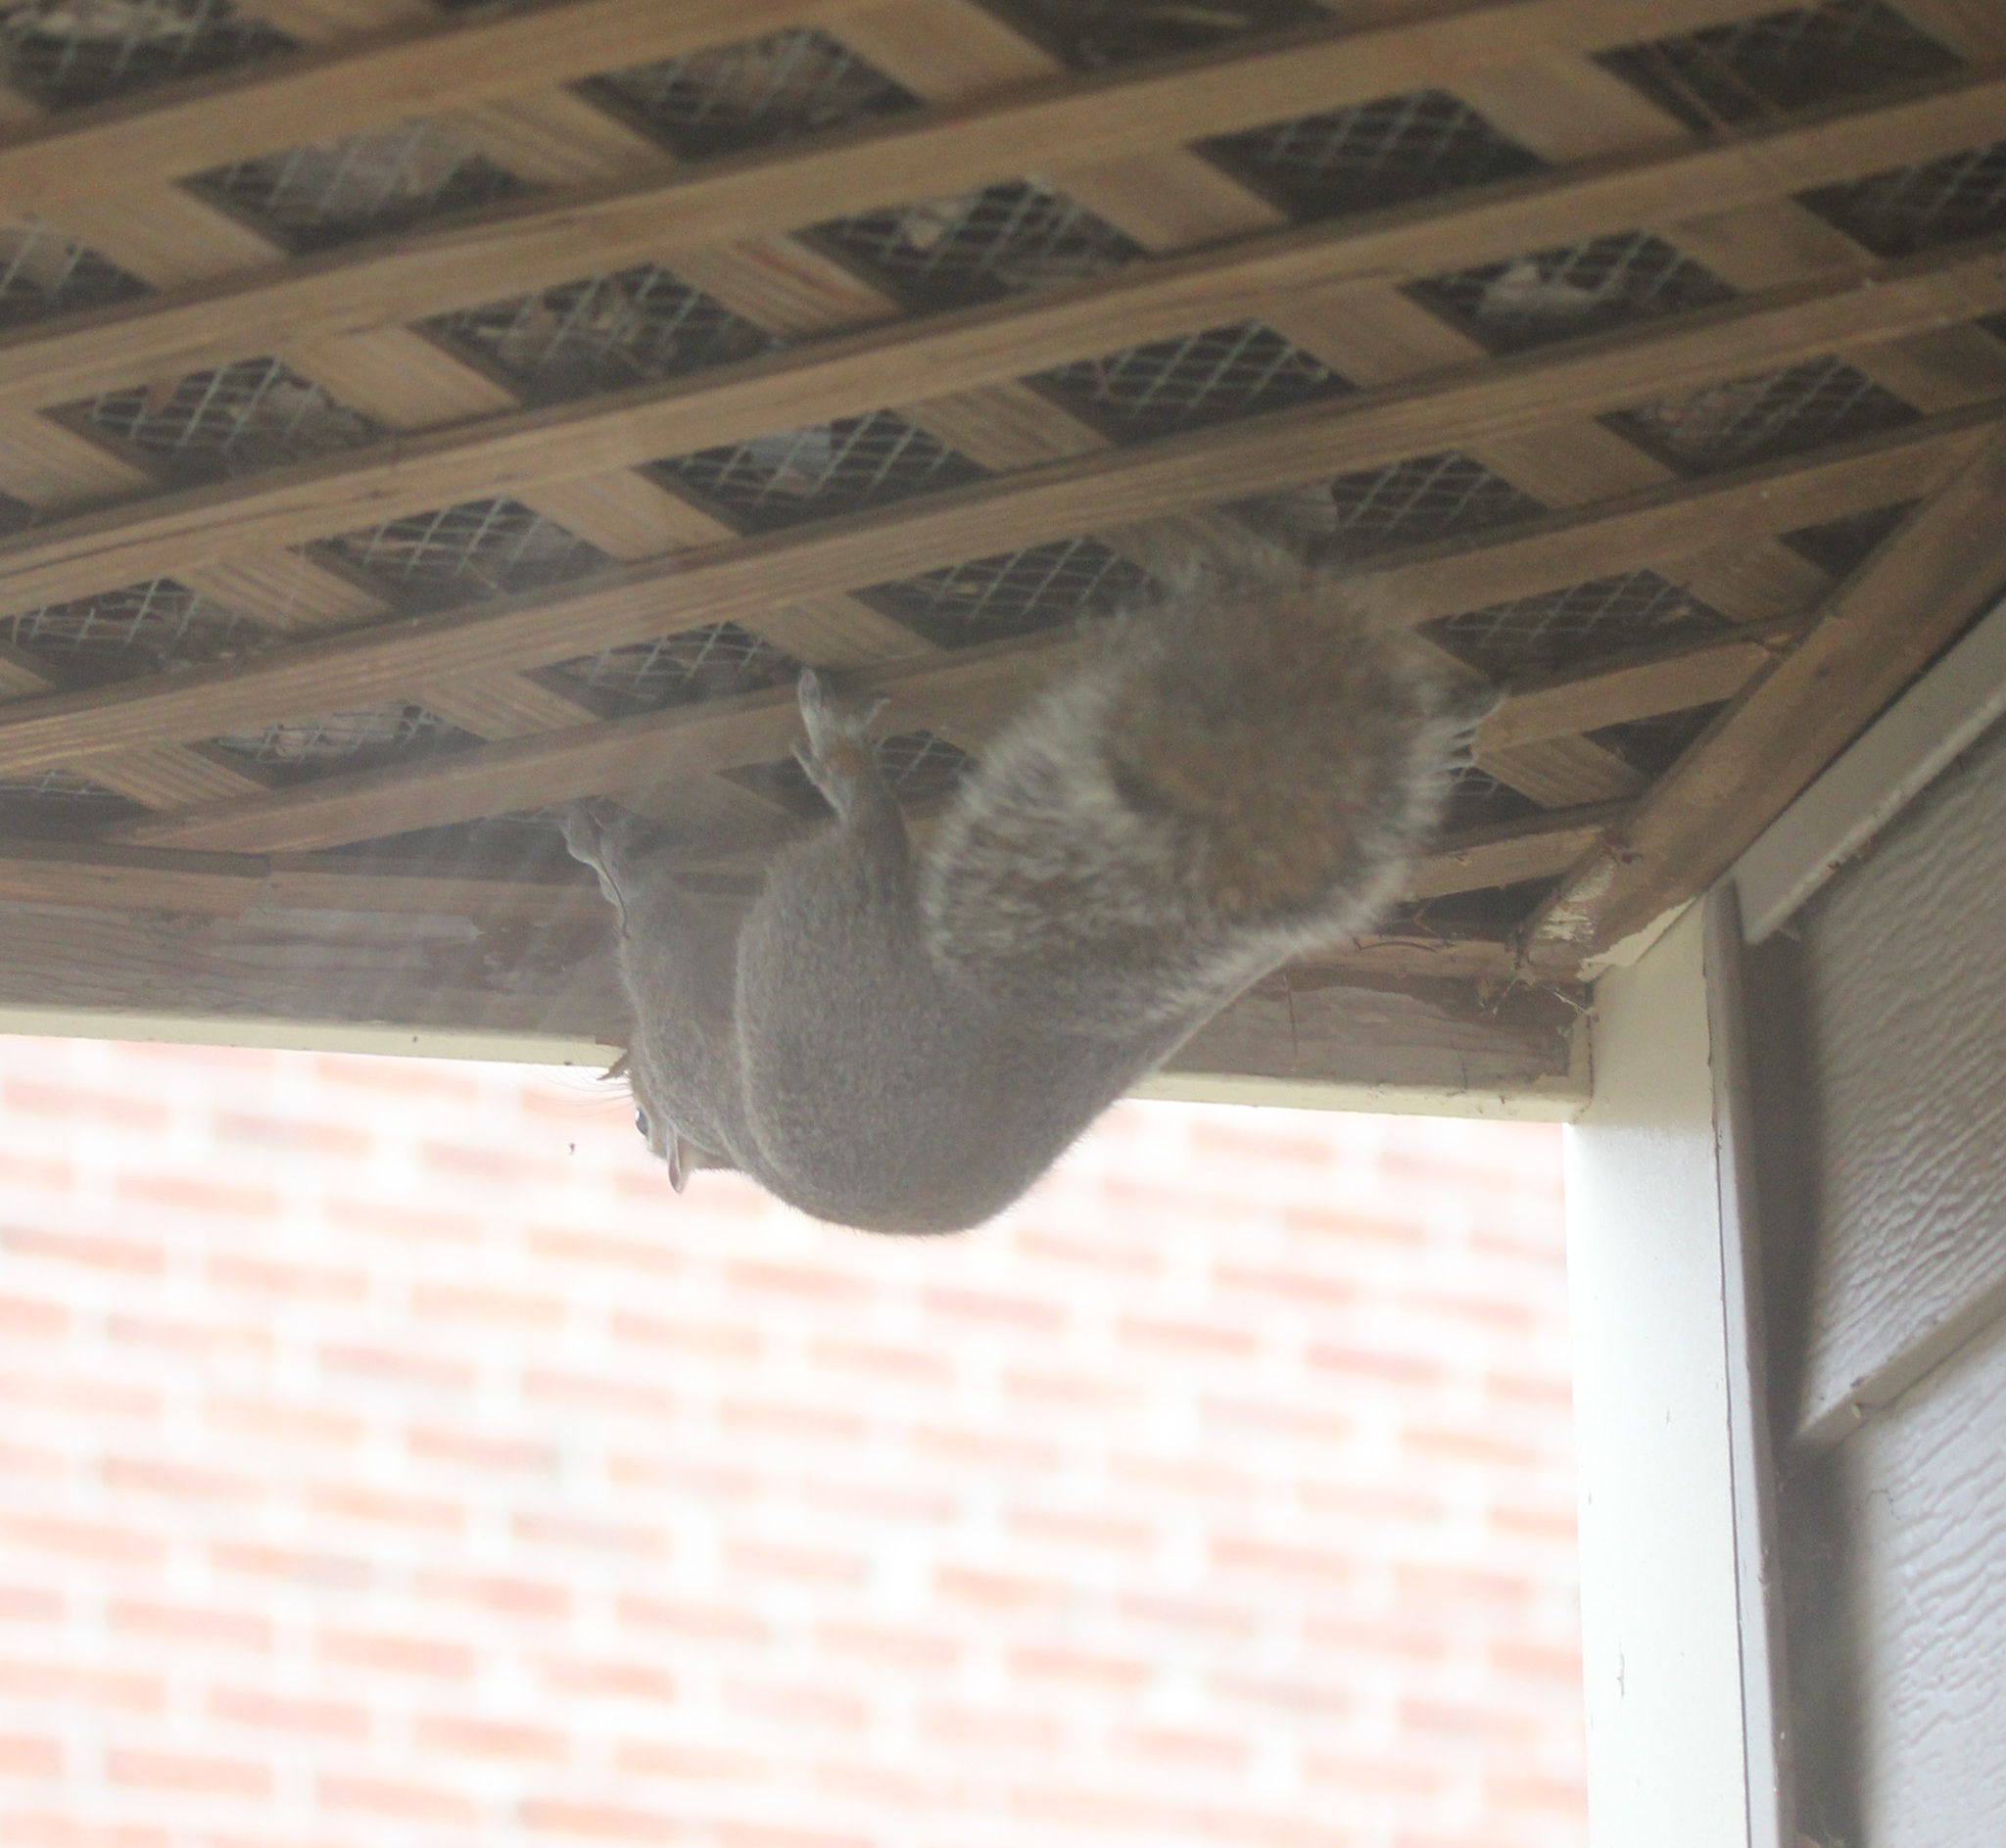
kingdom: Animalia
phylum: Chordata
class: Mammalia
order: Rodentia
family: Sciuridae
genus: Sciurus
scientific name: Sciurus carolinensis
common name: Eastern gray squirrel
